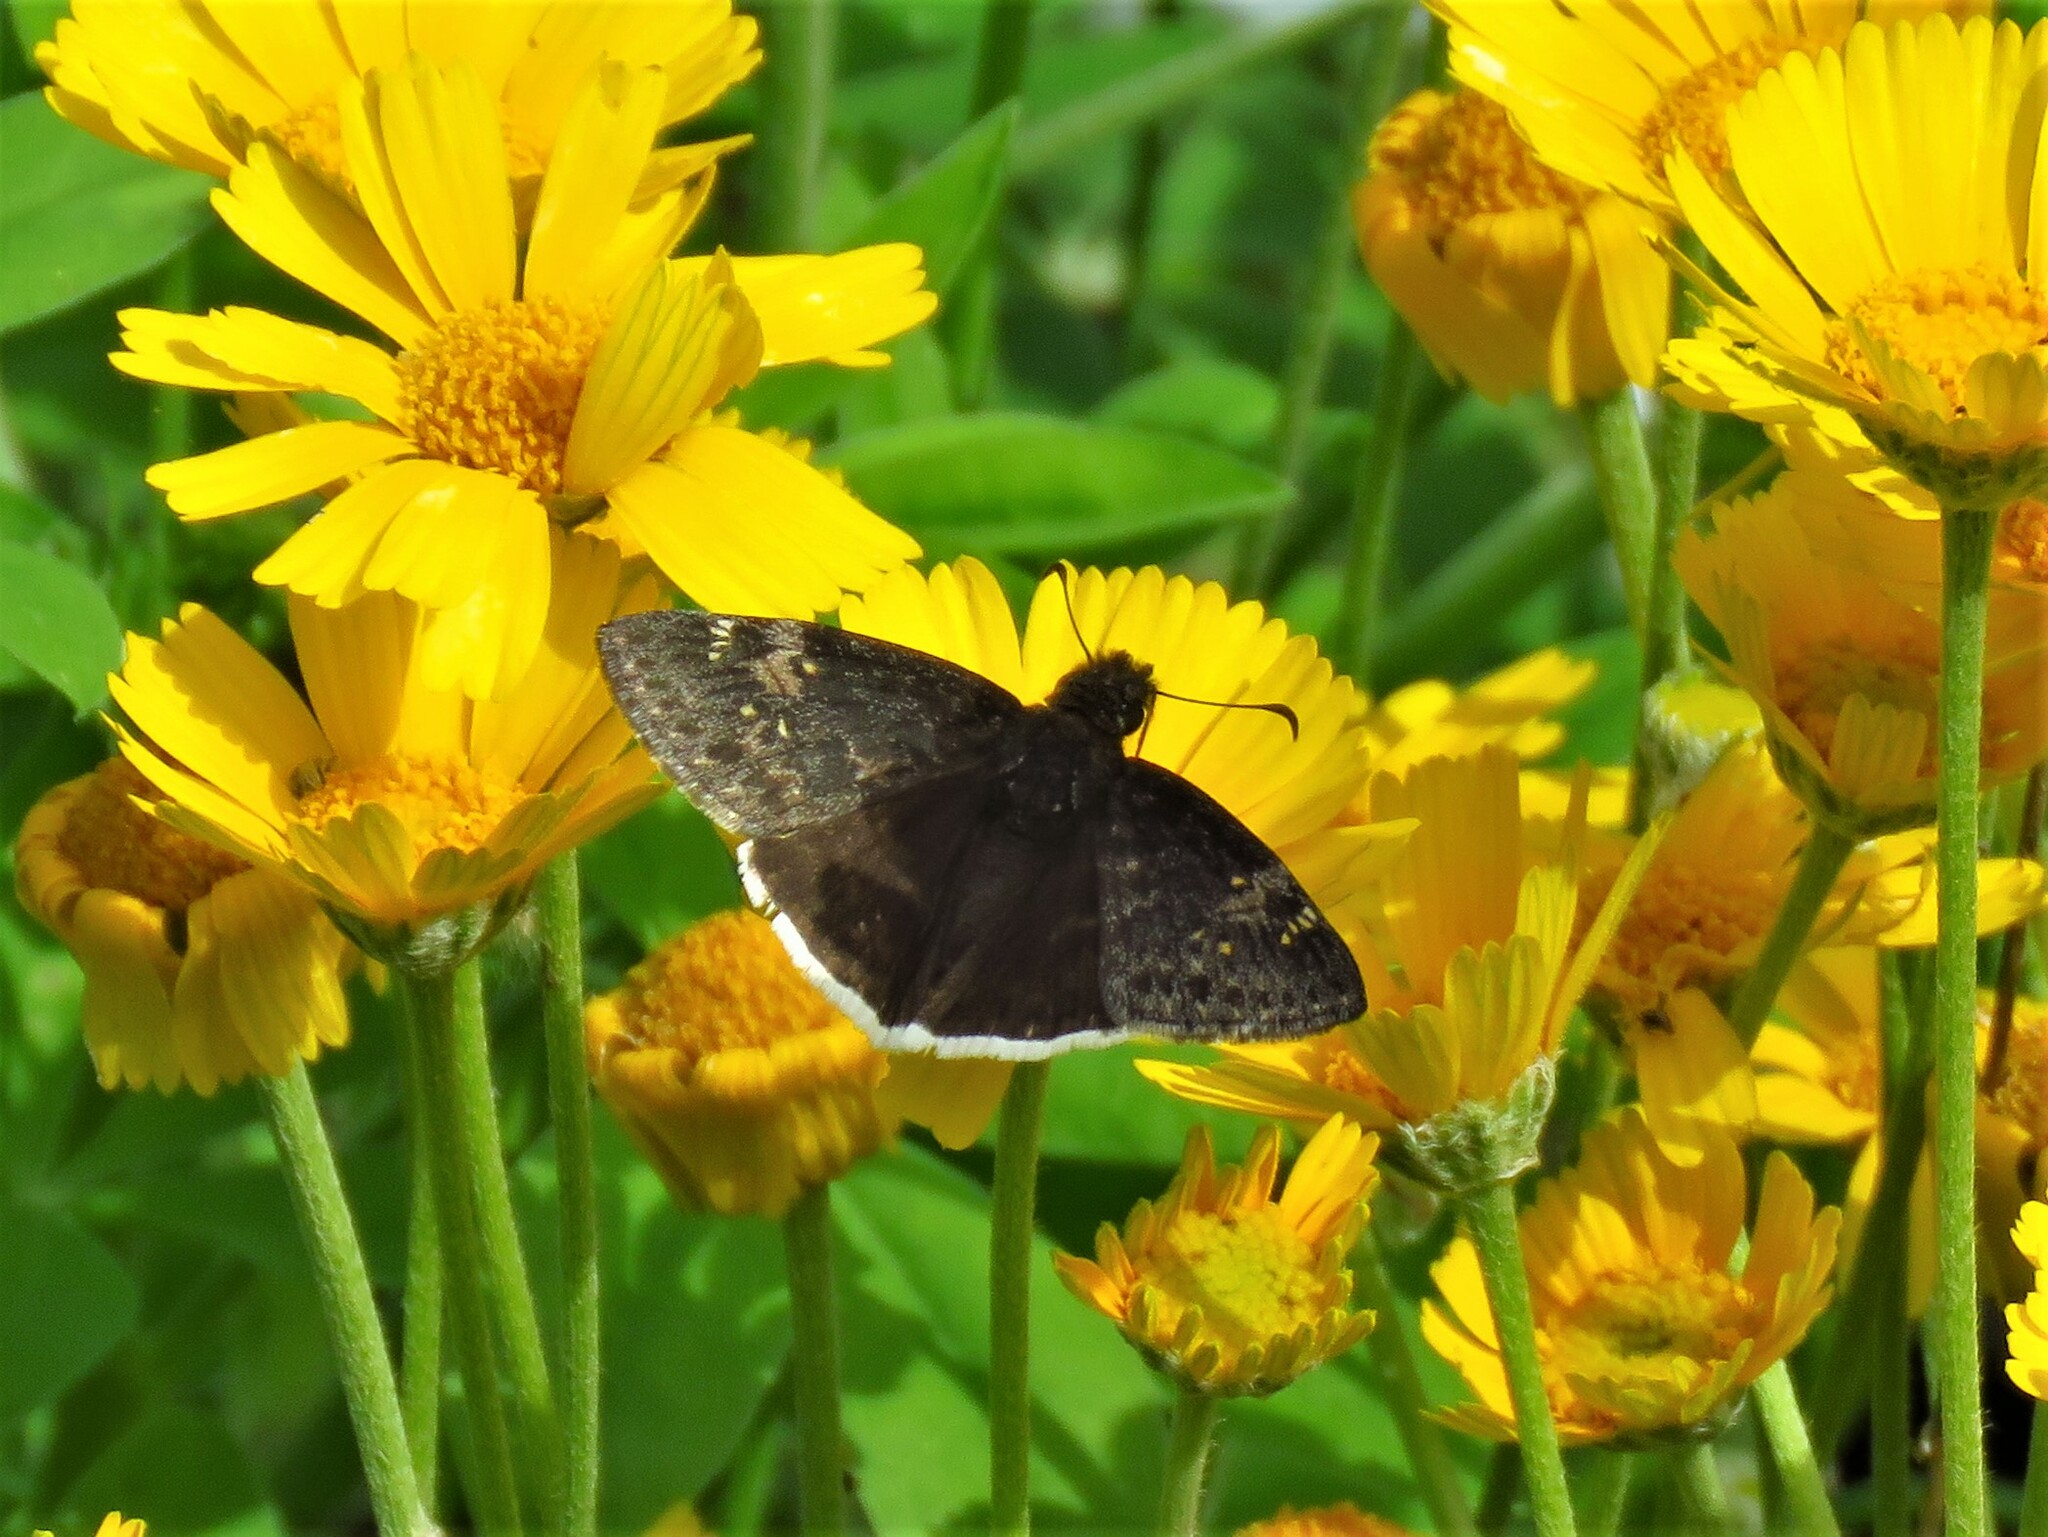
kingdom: Animalia
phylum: Arthropoda
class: Insecta
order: Lepidoptera
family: Hesperiidae
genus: Erynnis
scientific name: Erynnis funeralis
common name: Funereal duskywing
